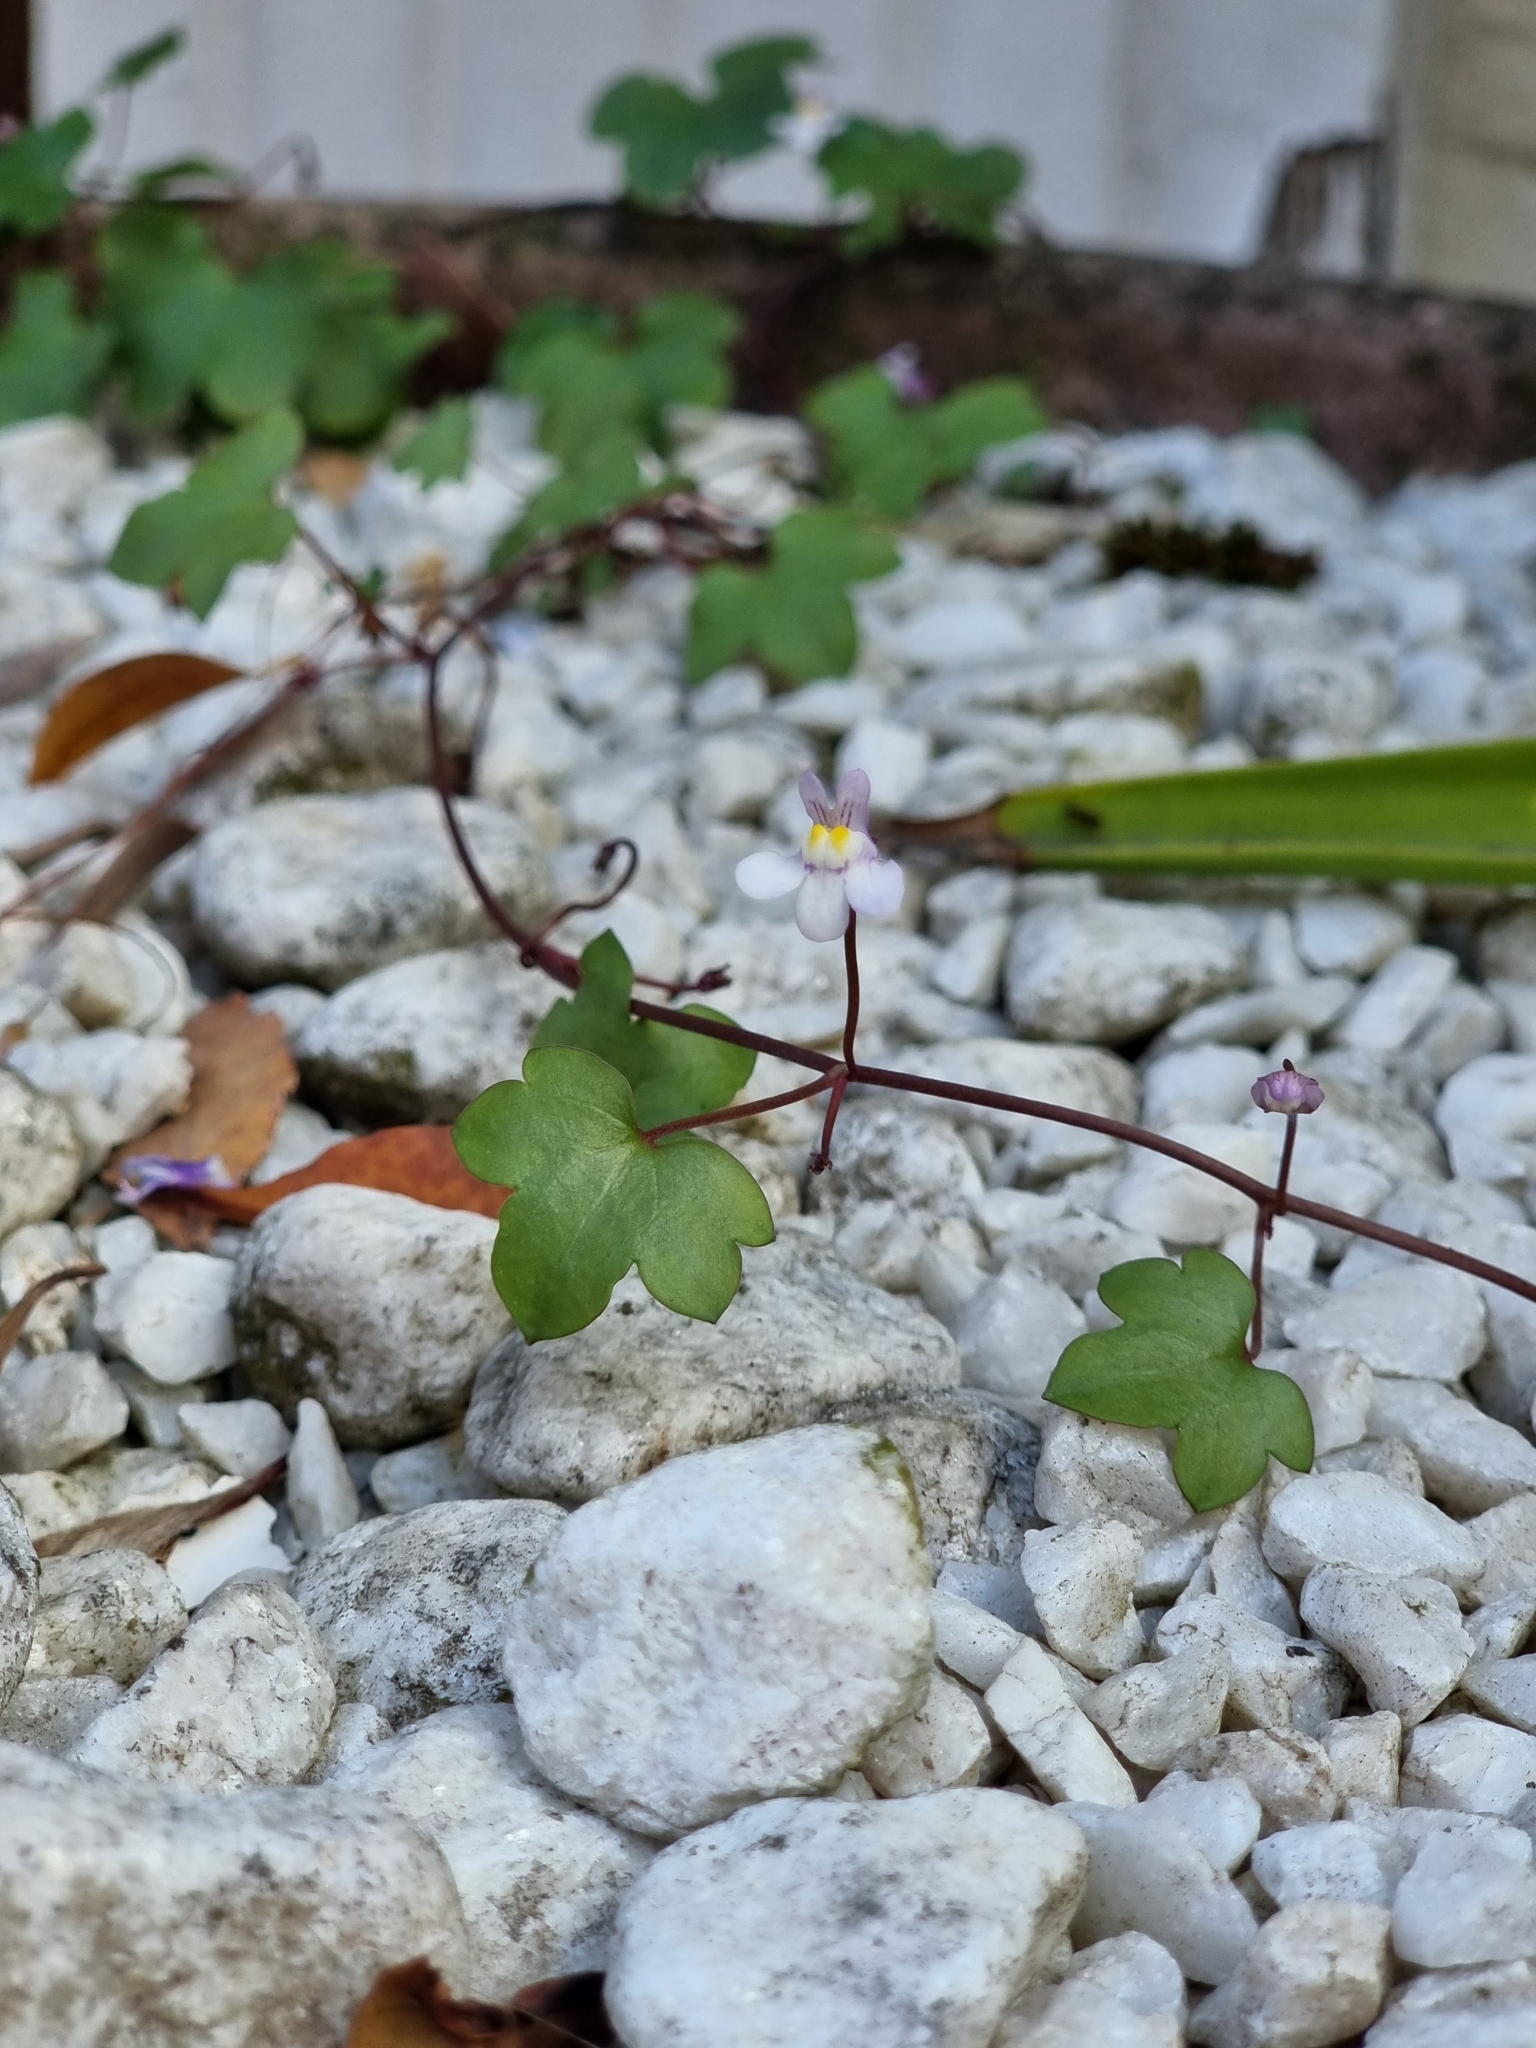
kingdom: Plantae
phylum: Tracheophyta
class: Magnoliopsida
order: Lamiales
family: Plantaginaceae
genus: Cymbalaria
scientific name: Cymbalaria muralis
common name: Ivy-leaved toadflax
